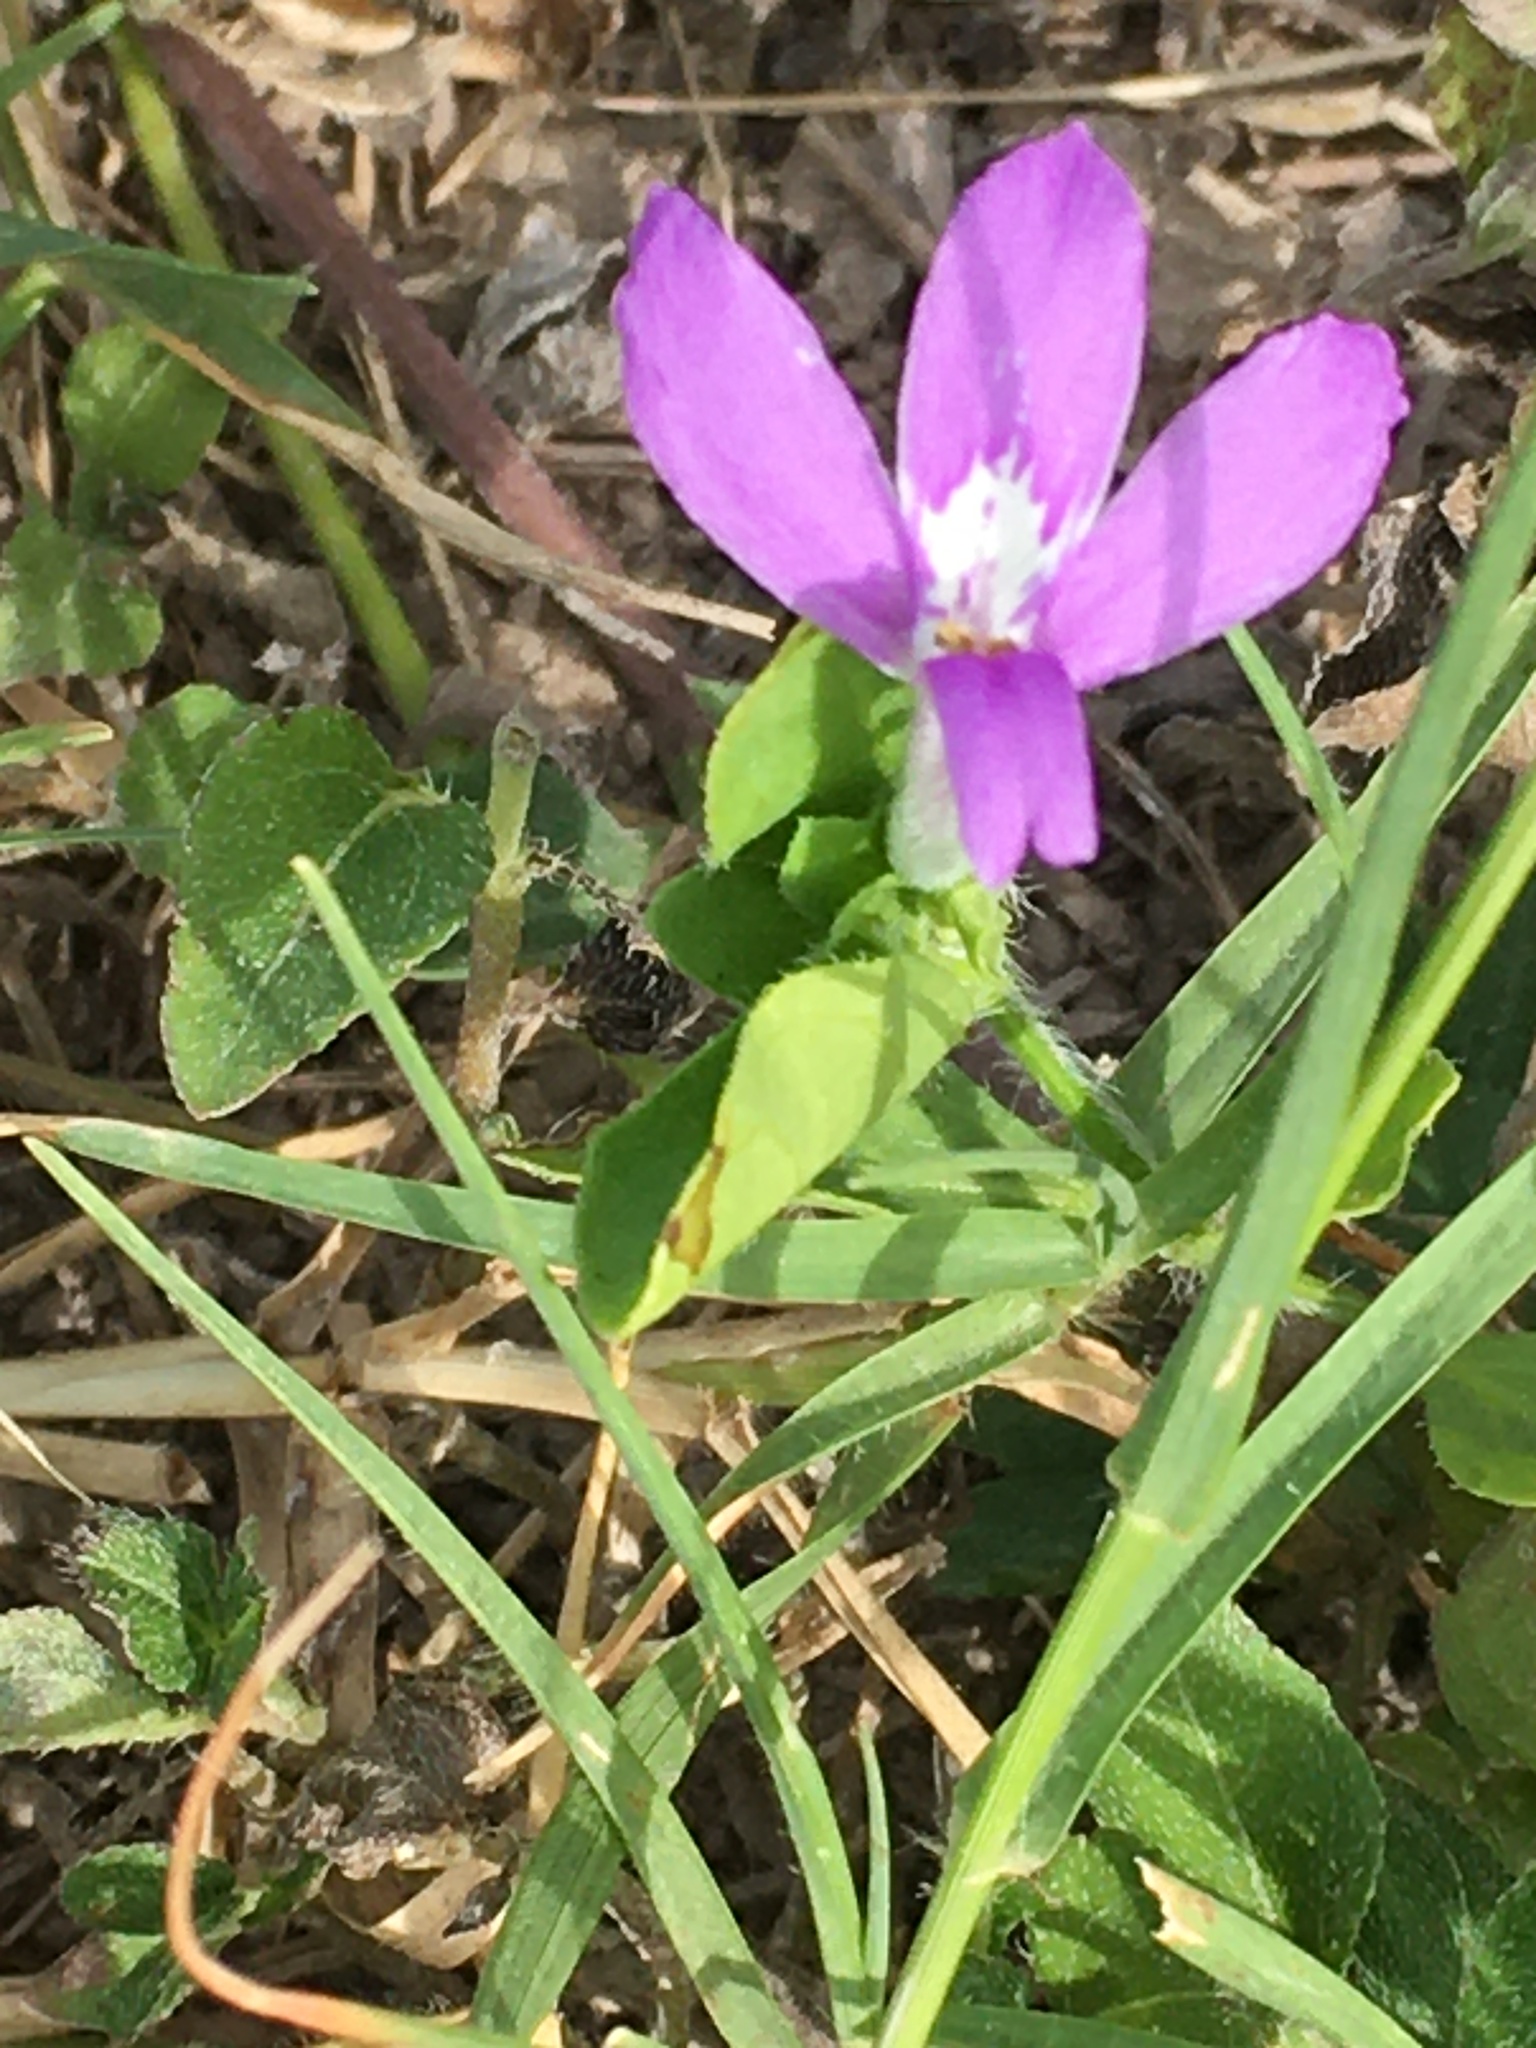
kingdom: Plantae
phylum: Tracheophyta
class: Magnoliopsida
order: Lamiales
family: Acanthaceae
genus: Justicia
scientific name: Justicia pilosella
